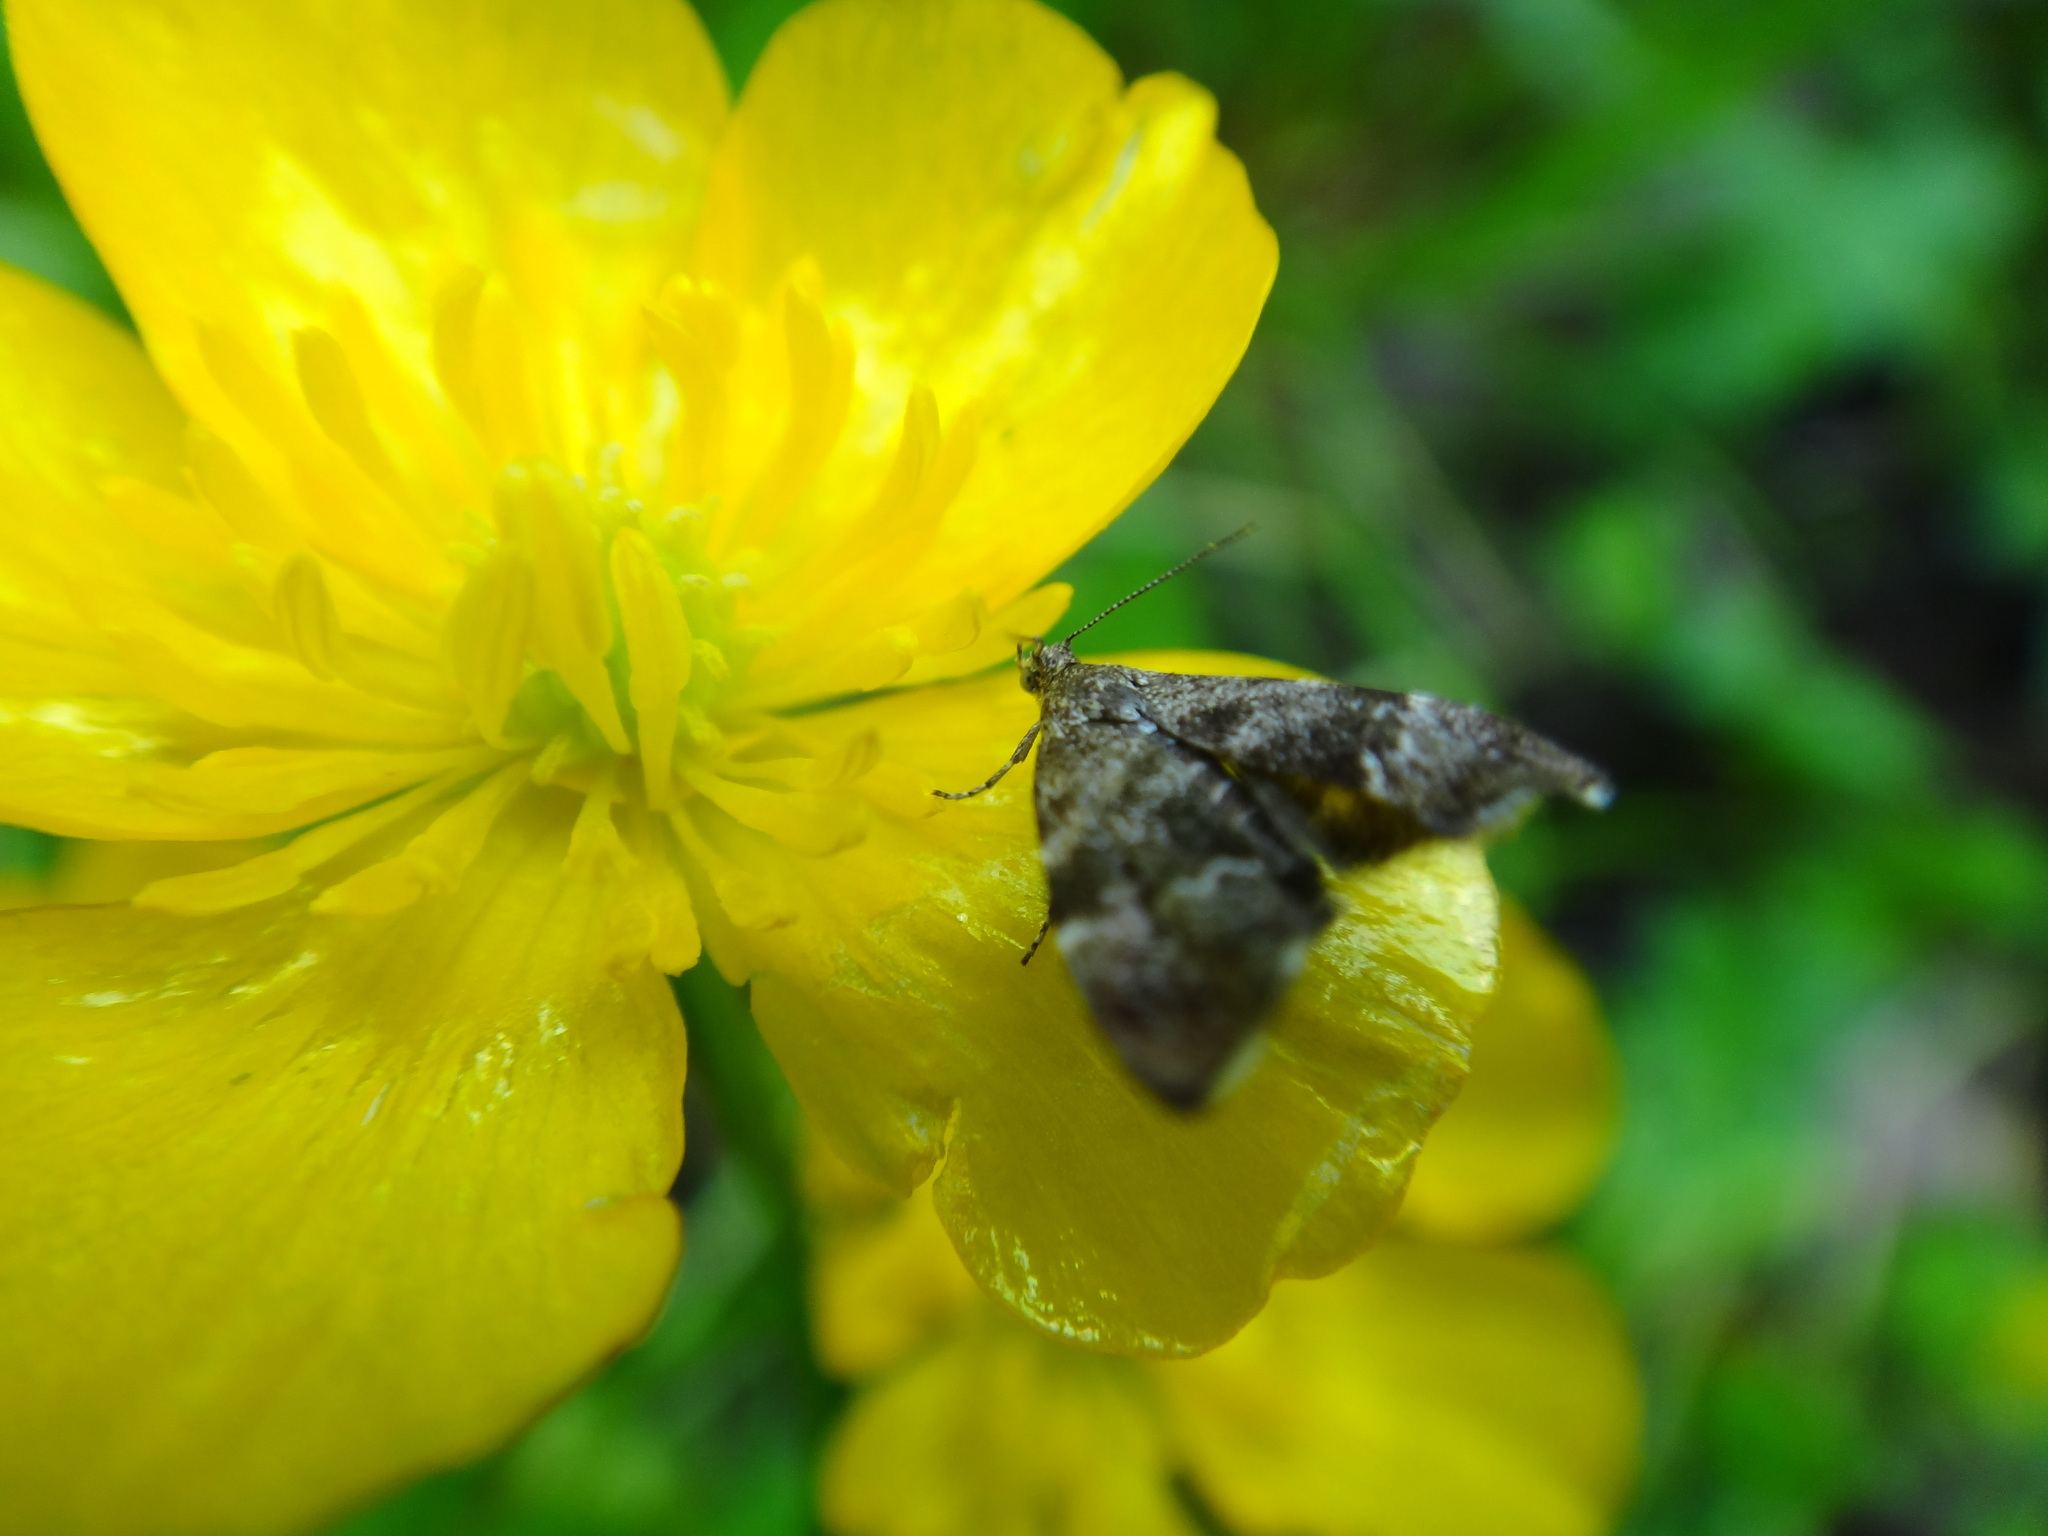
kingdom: Animalia
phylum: Arthropoda
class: Insecta
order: Lepidoptera
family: Choreutidae
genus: Anthophila
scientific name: Anthophila fabriciana
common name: Nettle-tap
